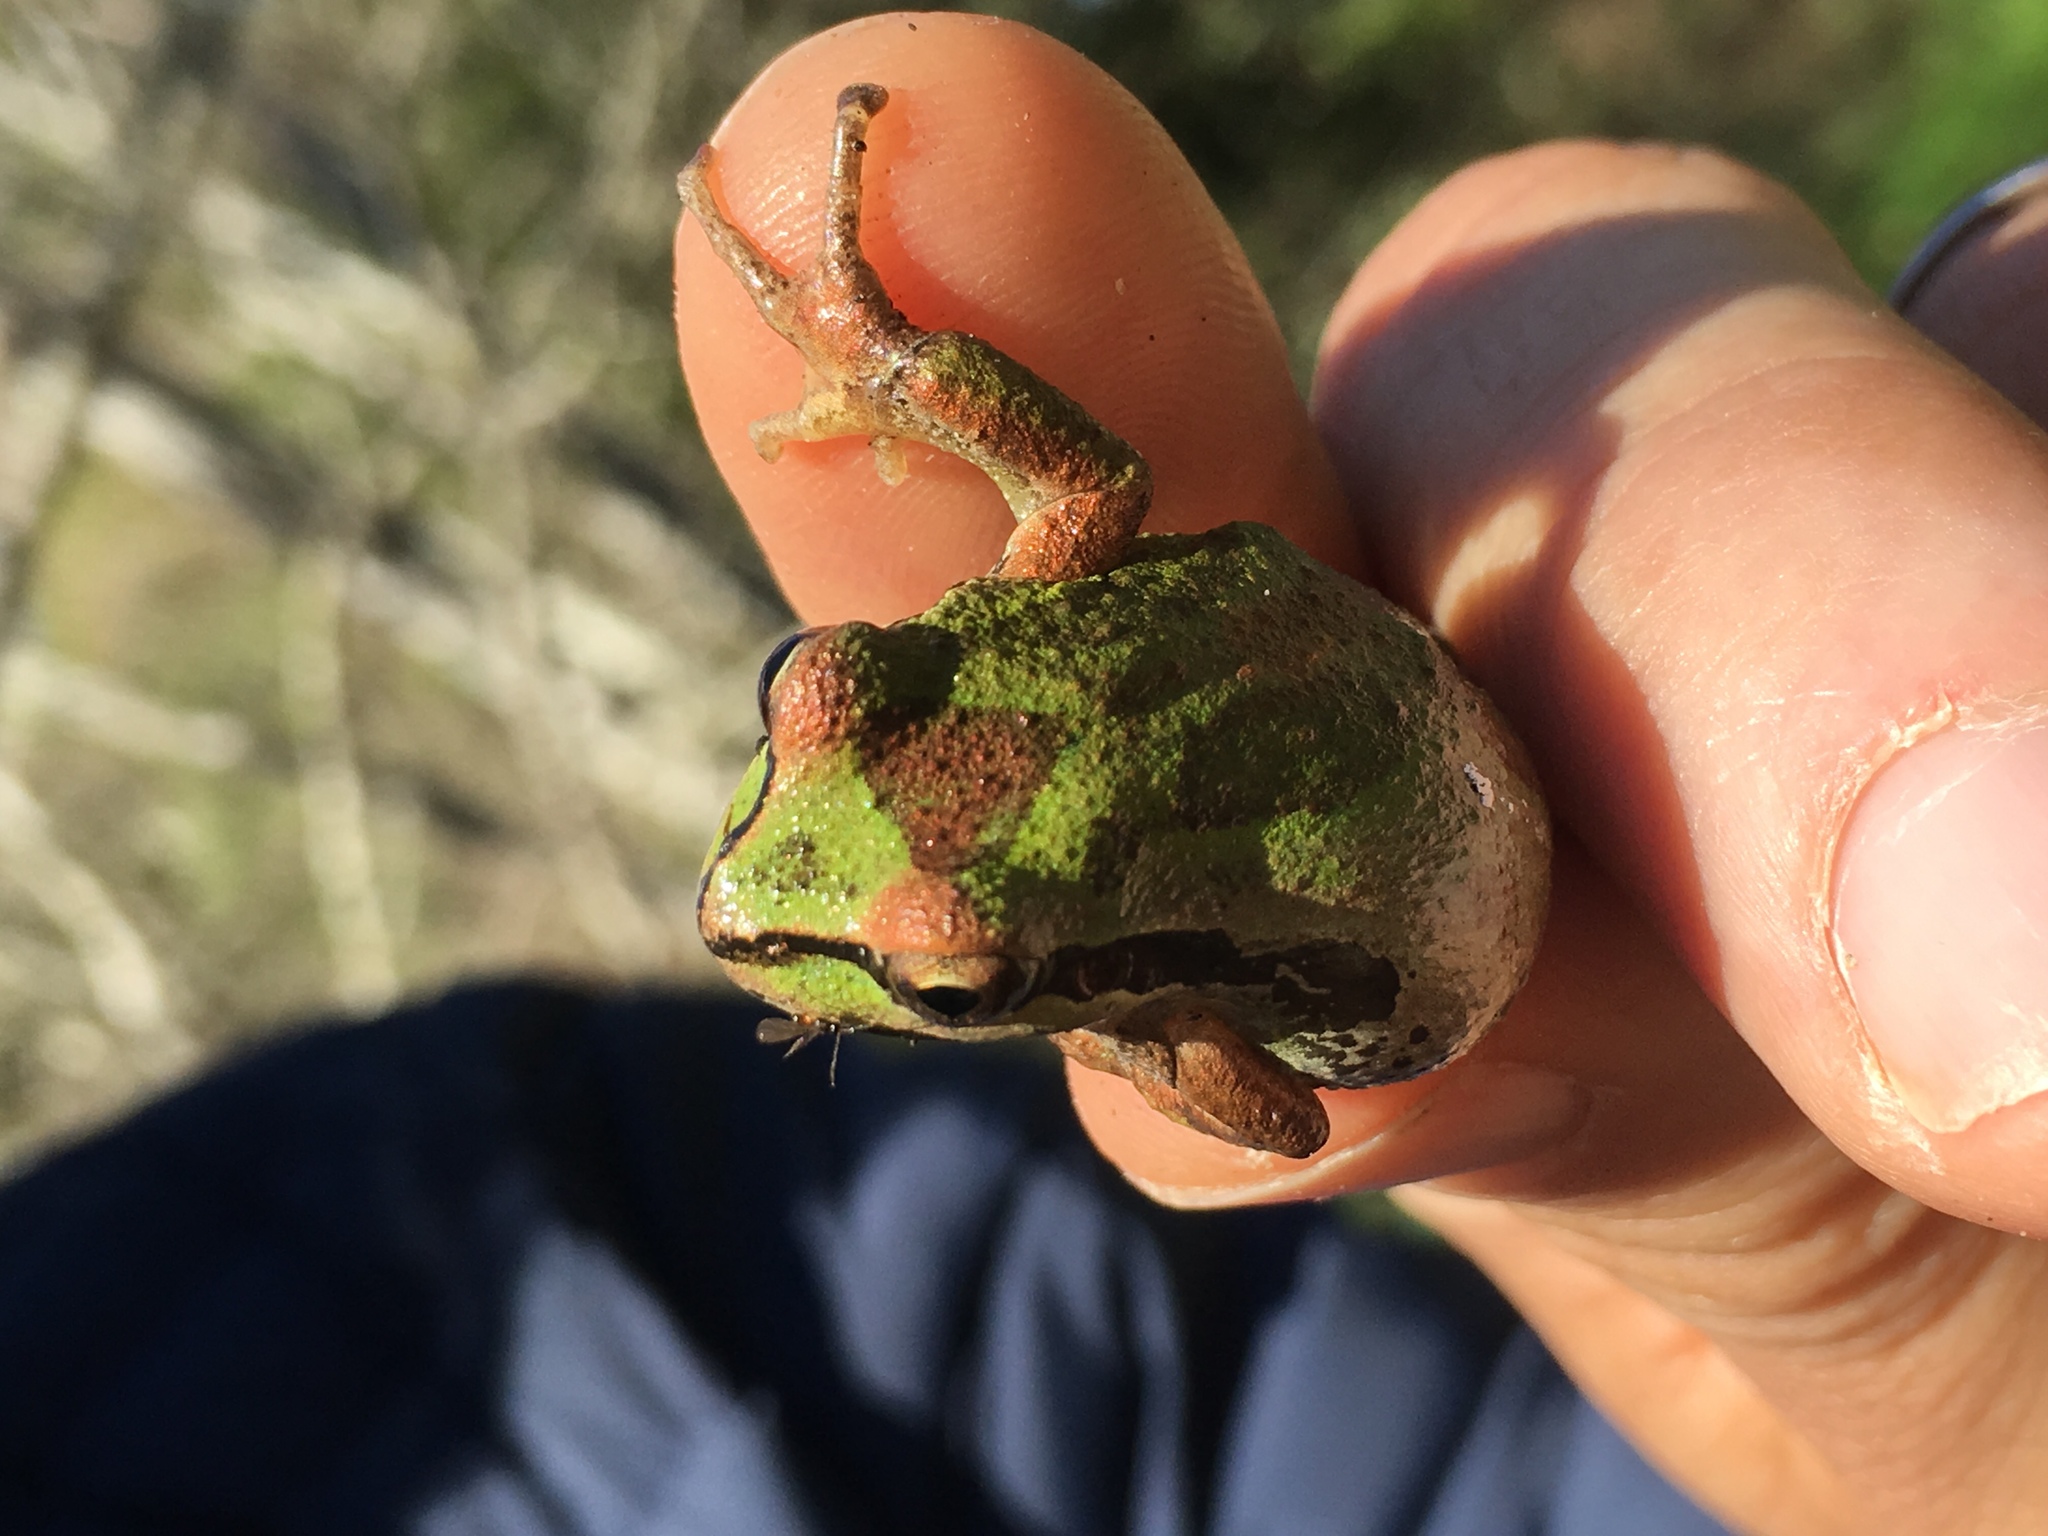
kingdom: Animalia
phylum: Chordata
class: Amphibia
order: Anura
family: Hylidae
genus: Pseudacris
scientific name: Pseudacris regilla
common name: Pacific chorus frog
